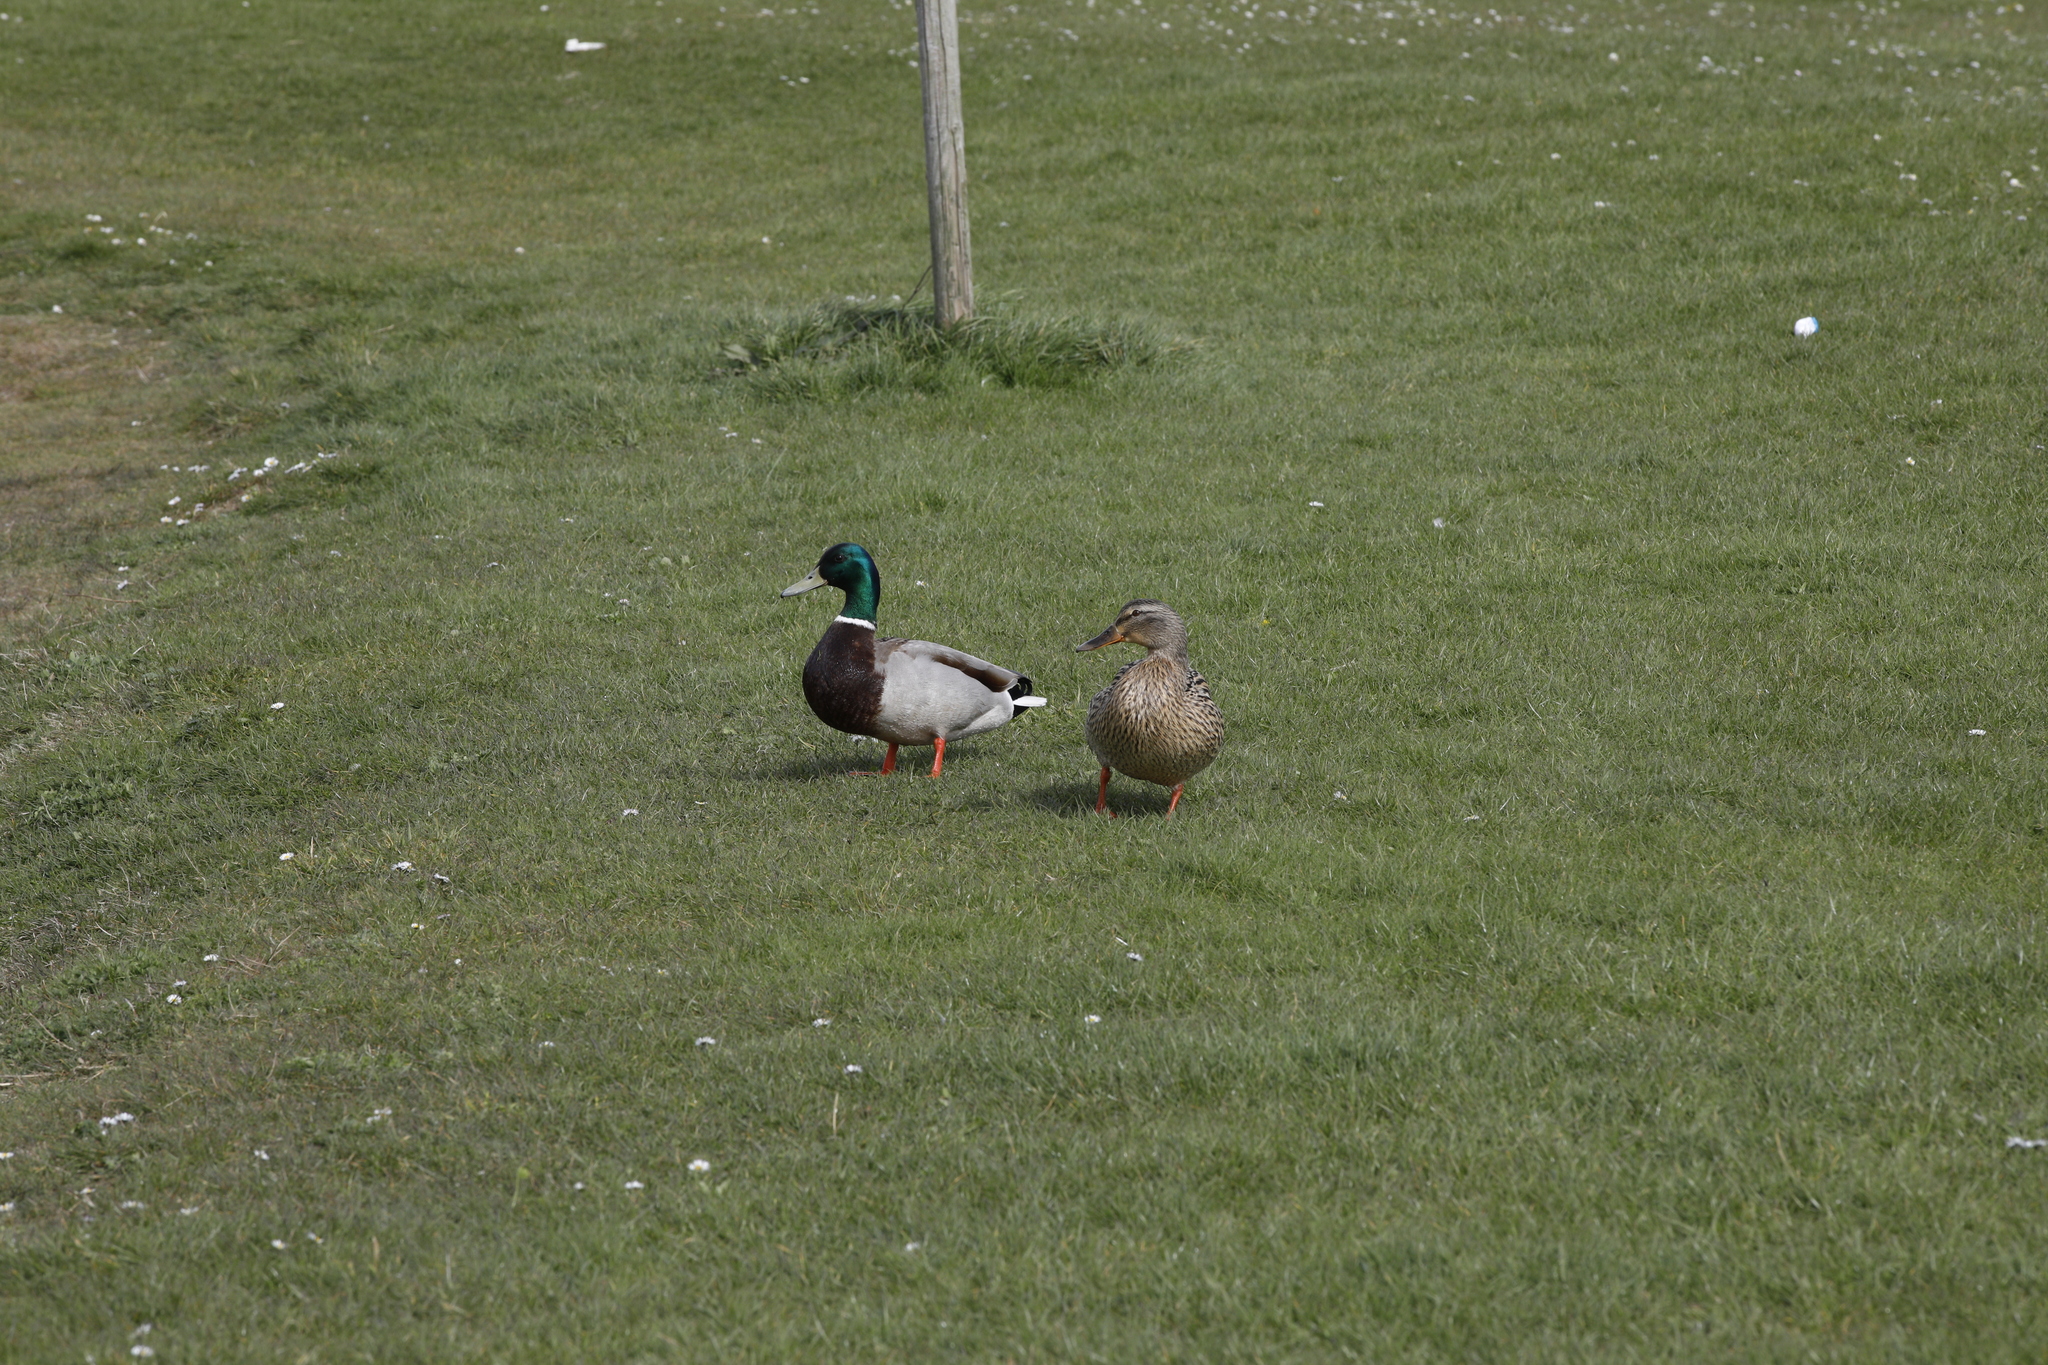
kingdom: Animalia
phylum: Chordata
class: Aves
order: Anseriformes
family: Anatidae
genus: Anas
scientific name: Anas platyrhynchos
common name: Mallard
